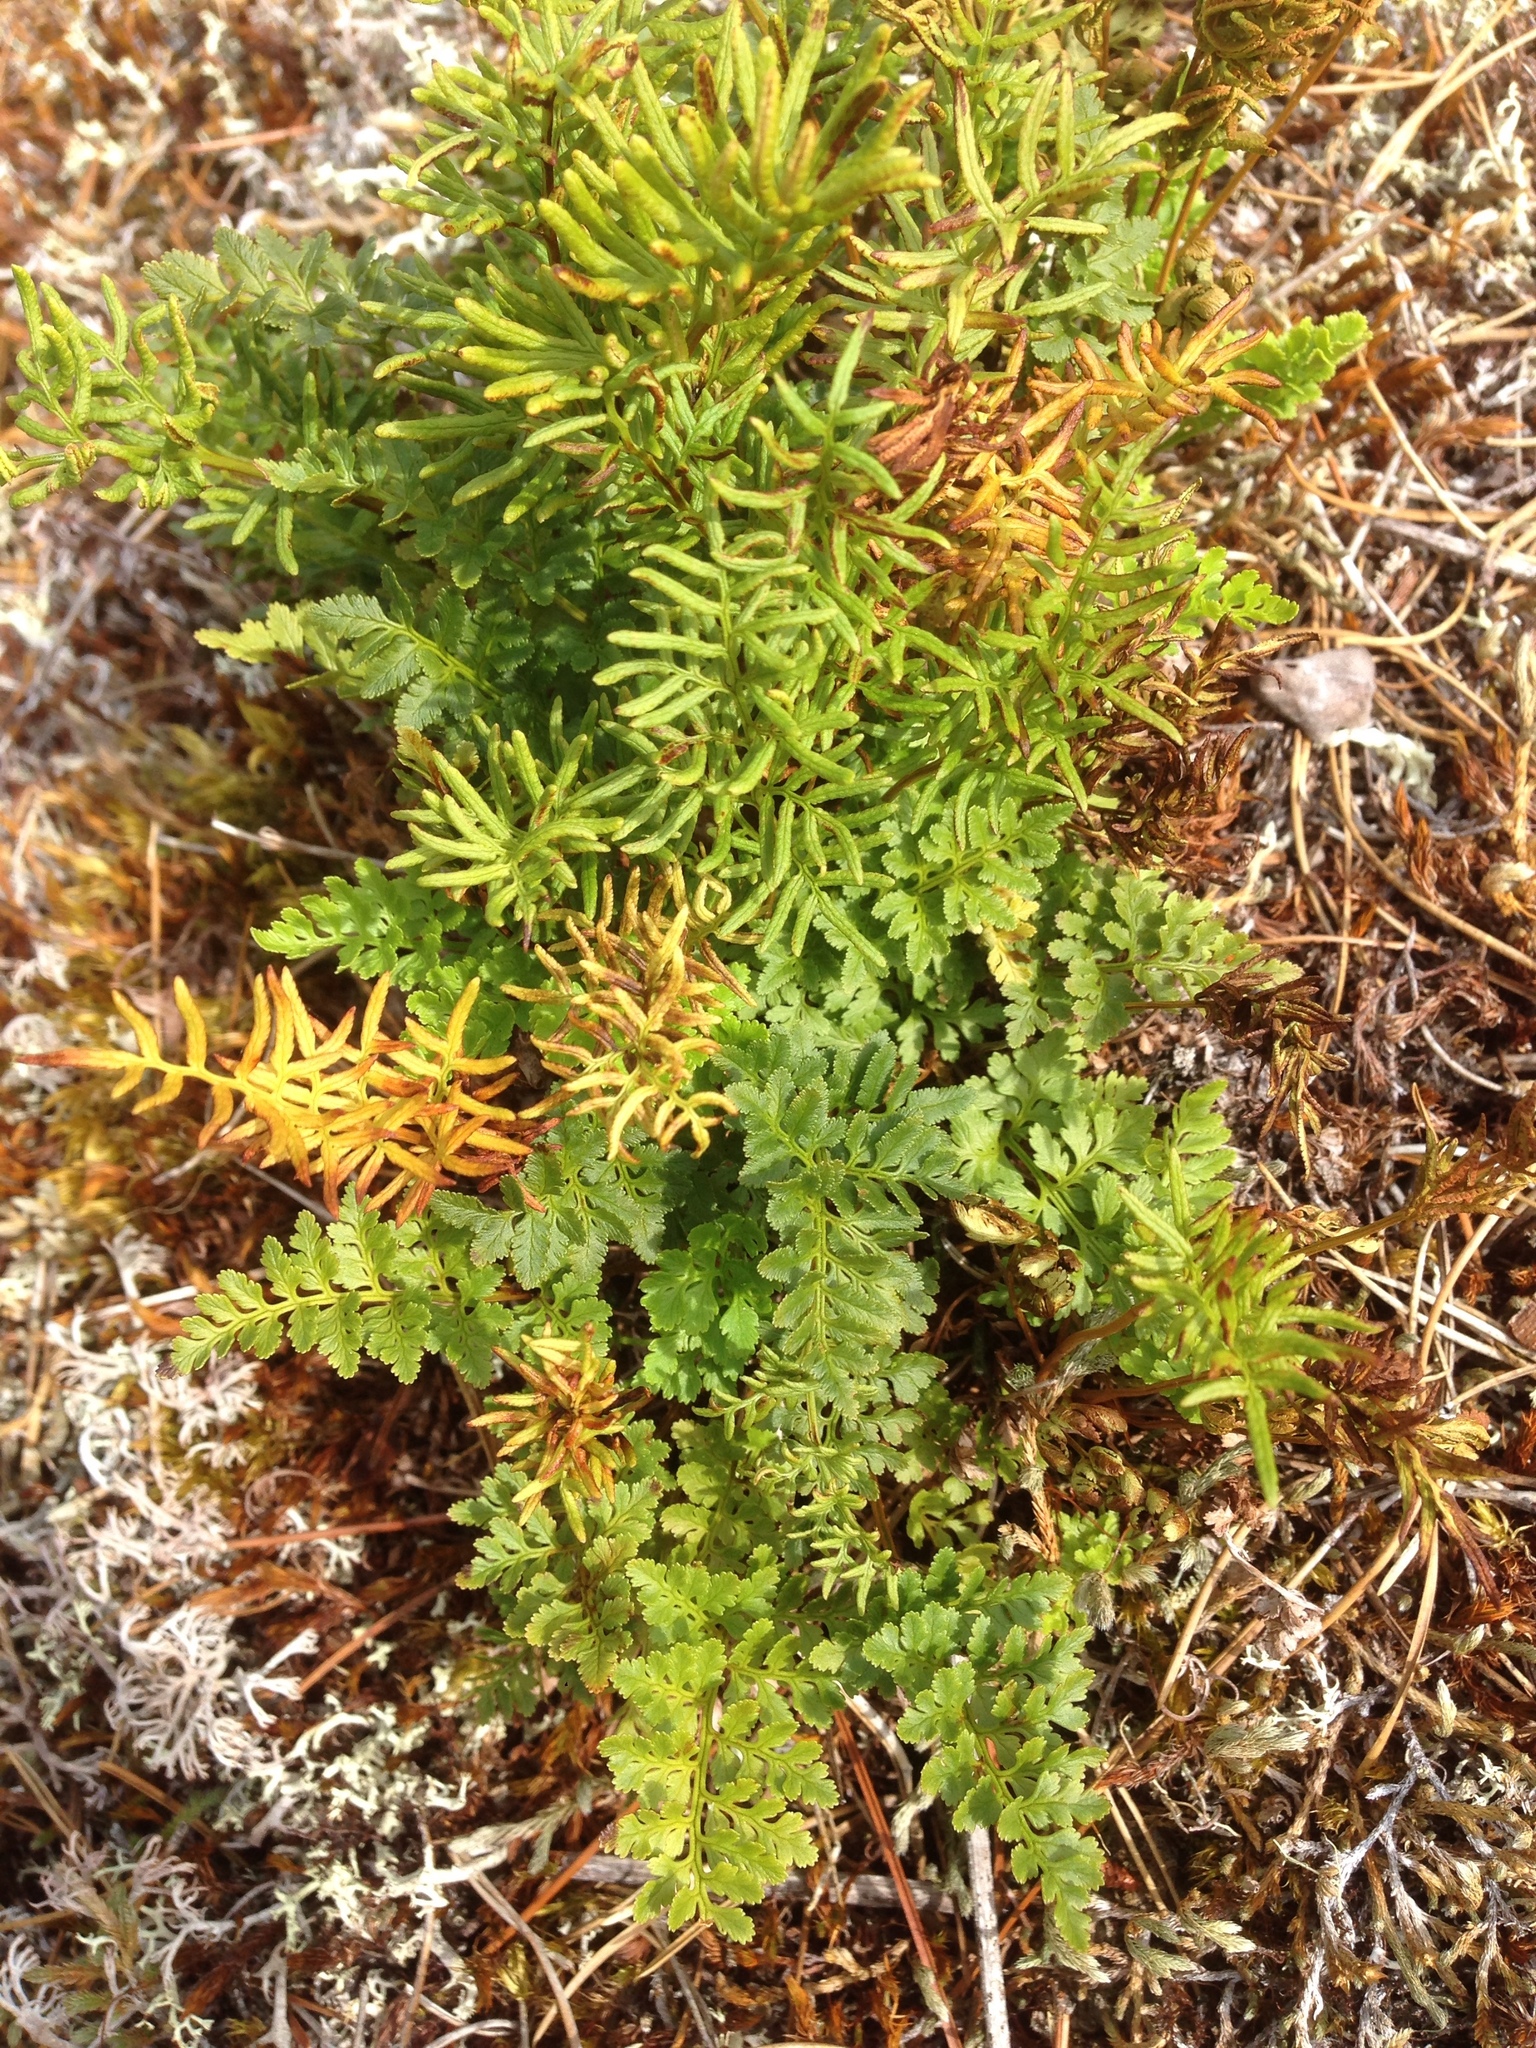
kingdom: Plantae
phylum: Tracheophyta
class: Polypodiopsida
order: Polypodiales
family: Pteridaceae
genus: Cryptogramma
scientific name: Cryptogramma acrostichoides
